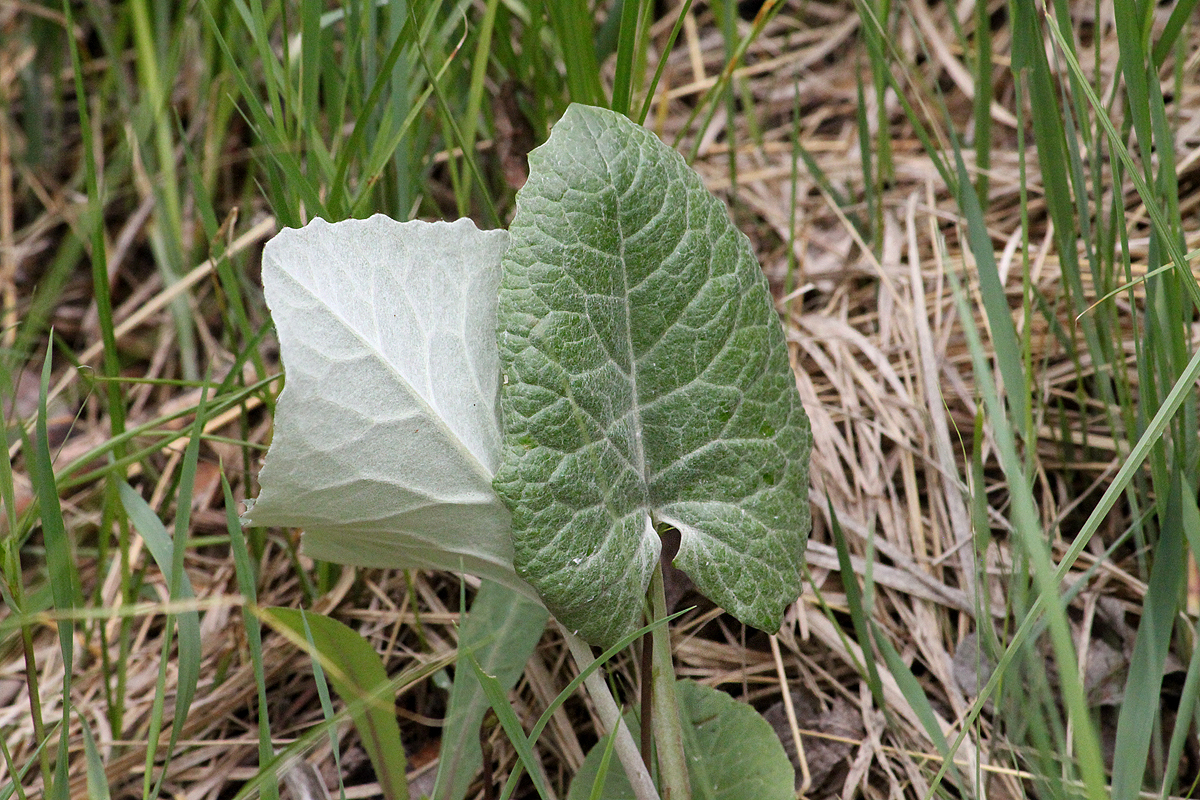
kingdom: Plantae
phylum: Tracheophyta
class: Magnoliopsida
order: Asterales
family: Asteraceae
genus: Petasites
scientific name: Petasites frigidus
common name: Arctic butterbur
